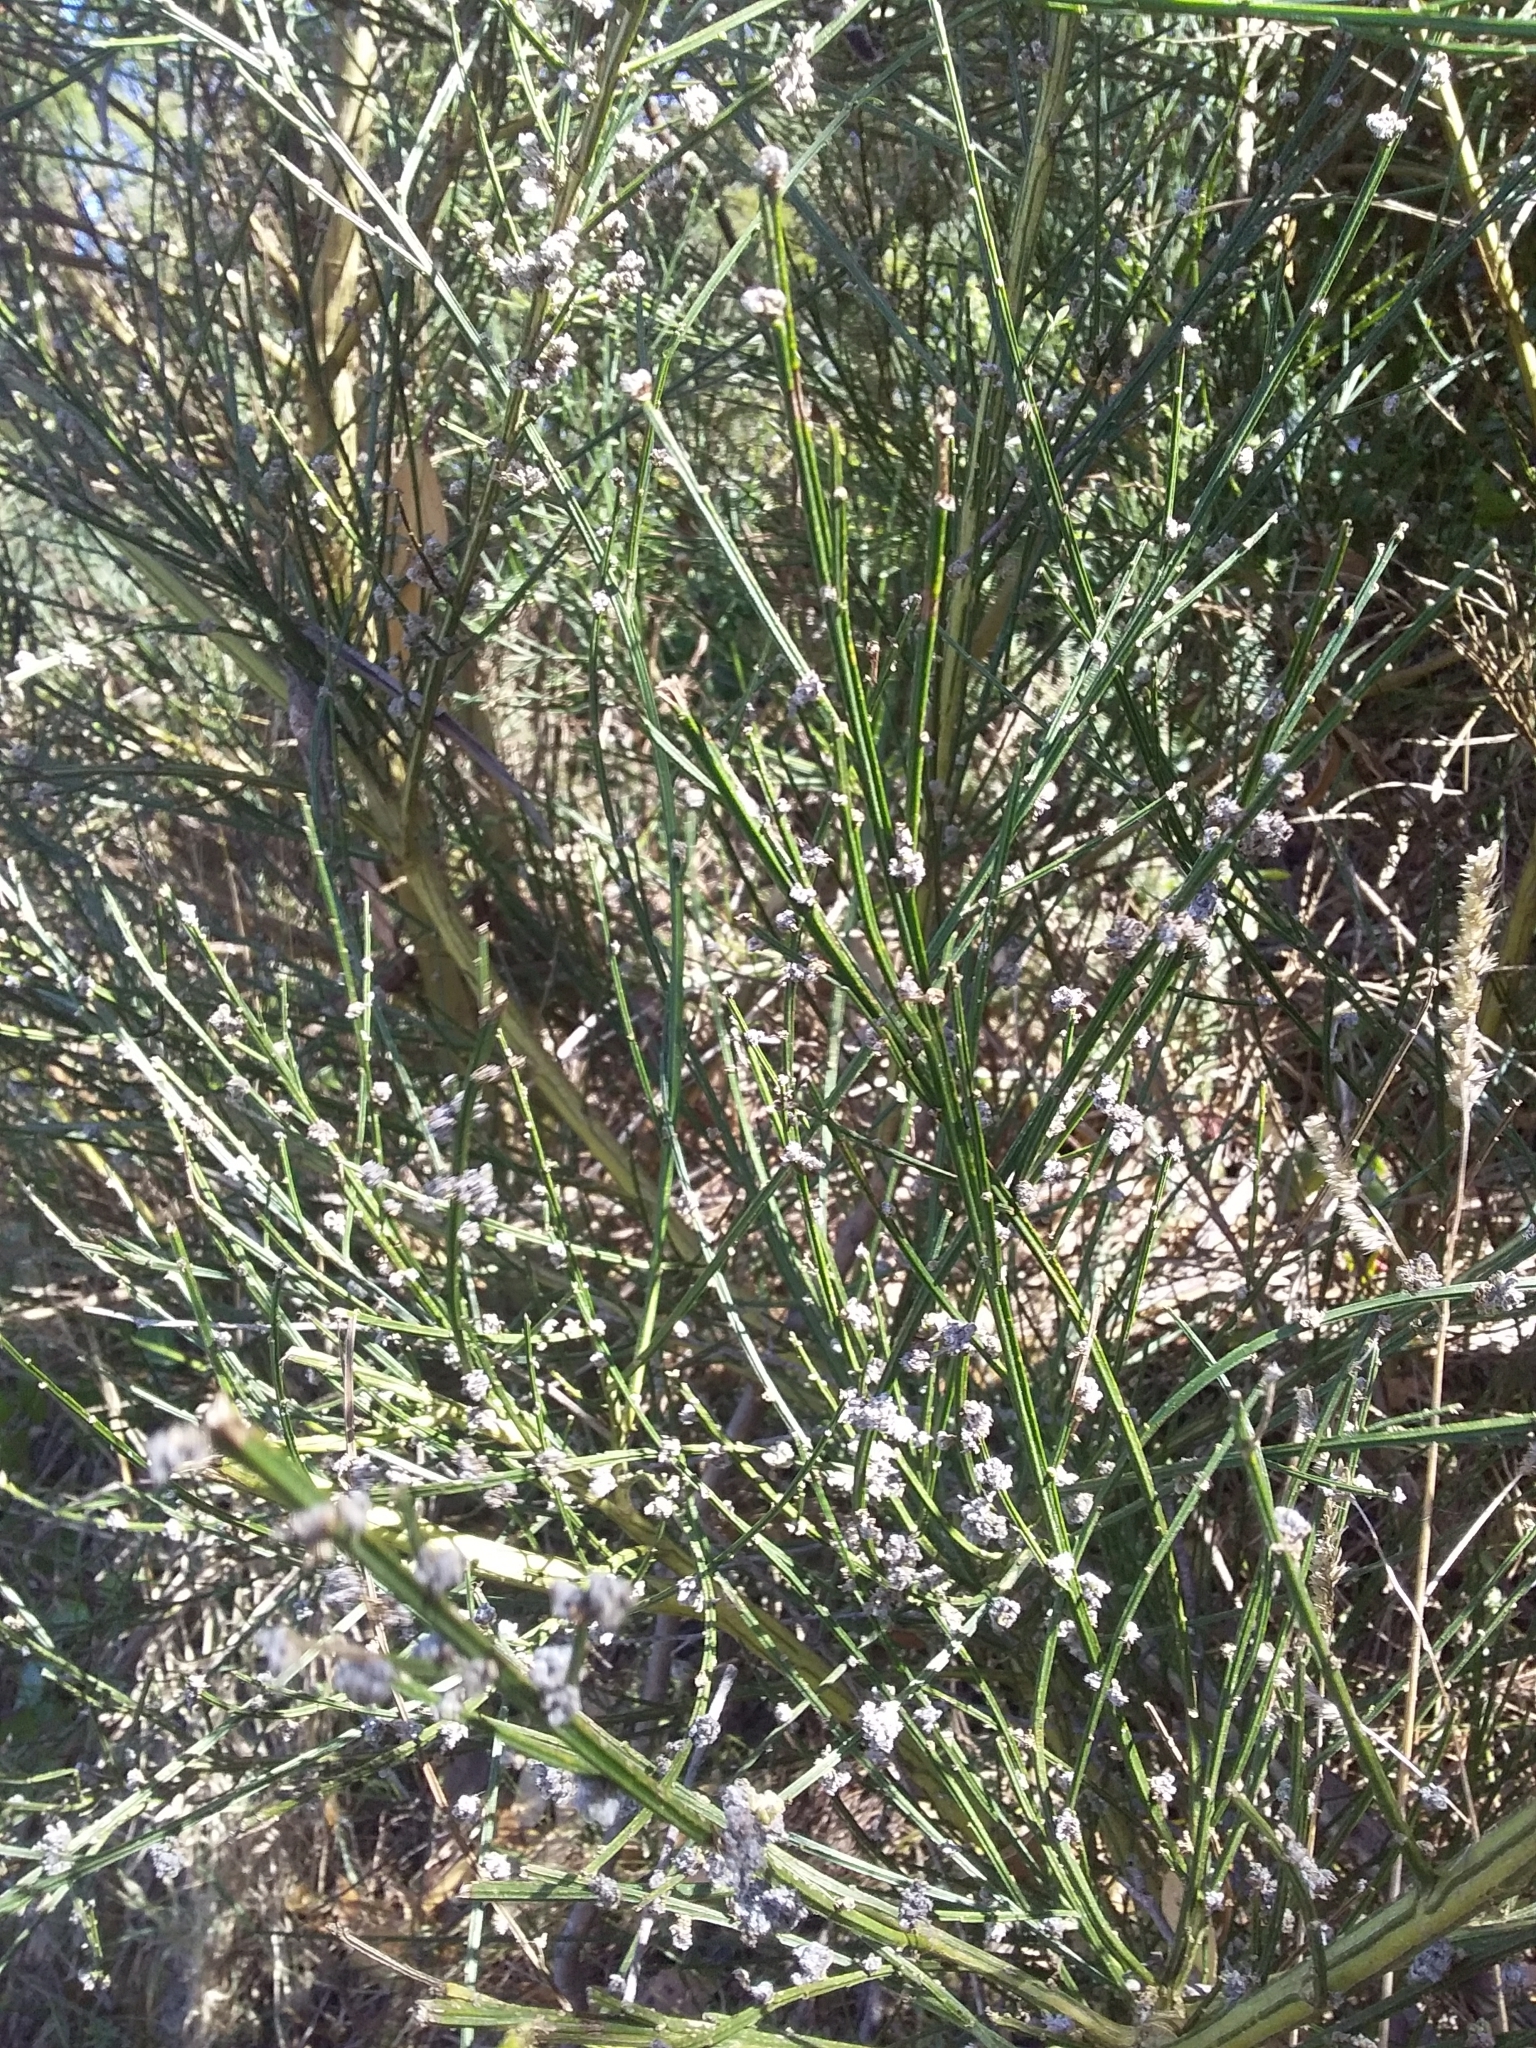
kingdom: Plantae
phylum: Tracheophyta
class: Magnoliopsida
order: Fabales
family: Fabaceae
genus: Cytisus
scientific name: Cytisus scoparius
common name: Scotch broom
